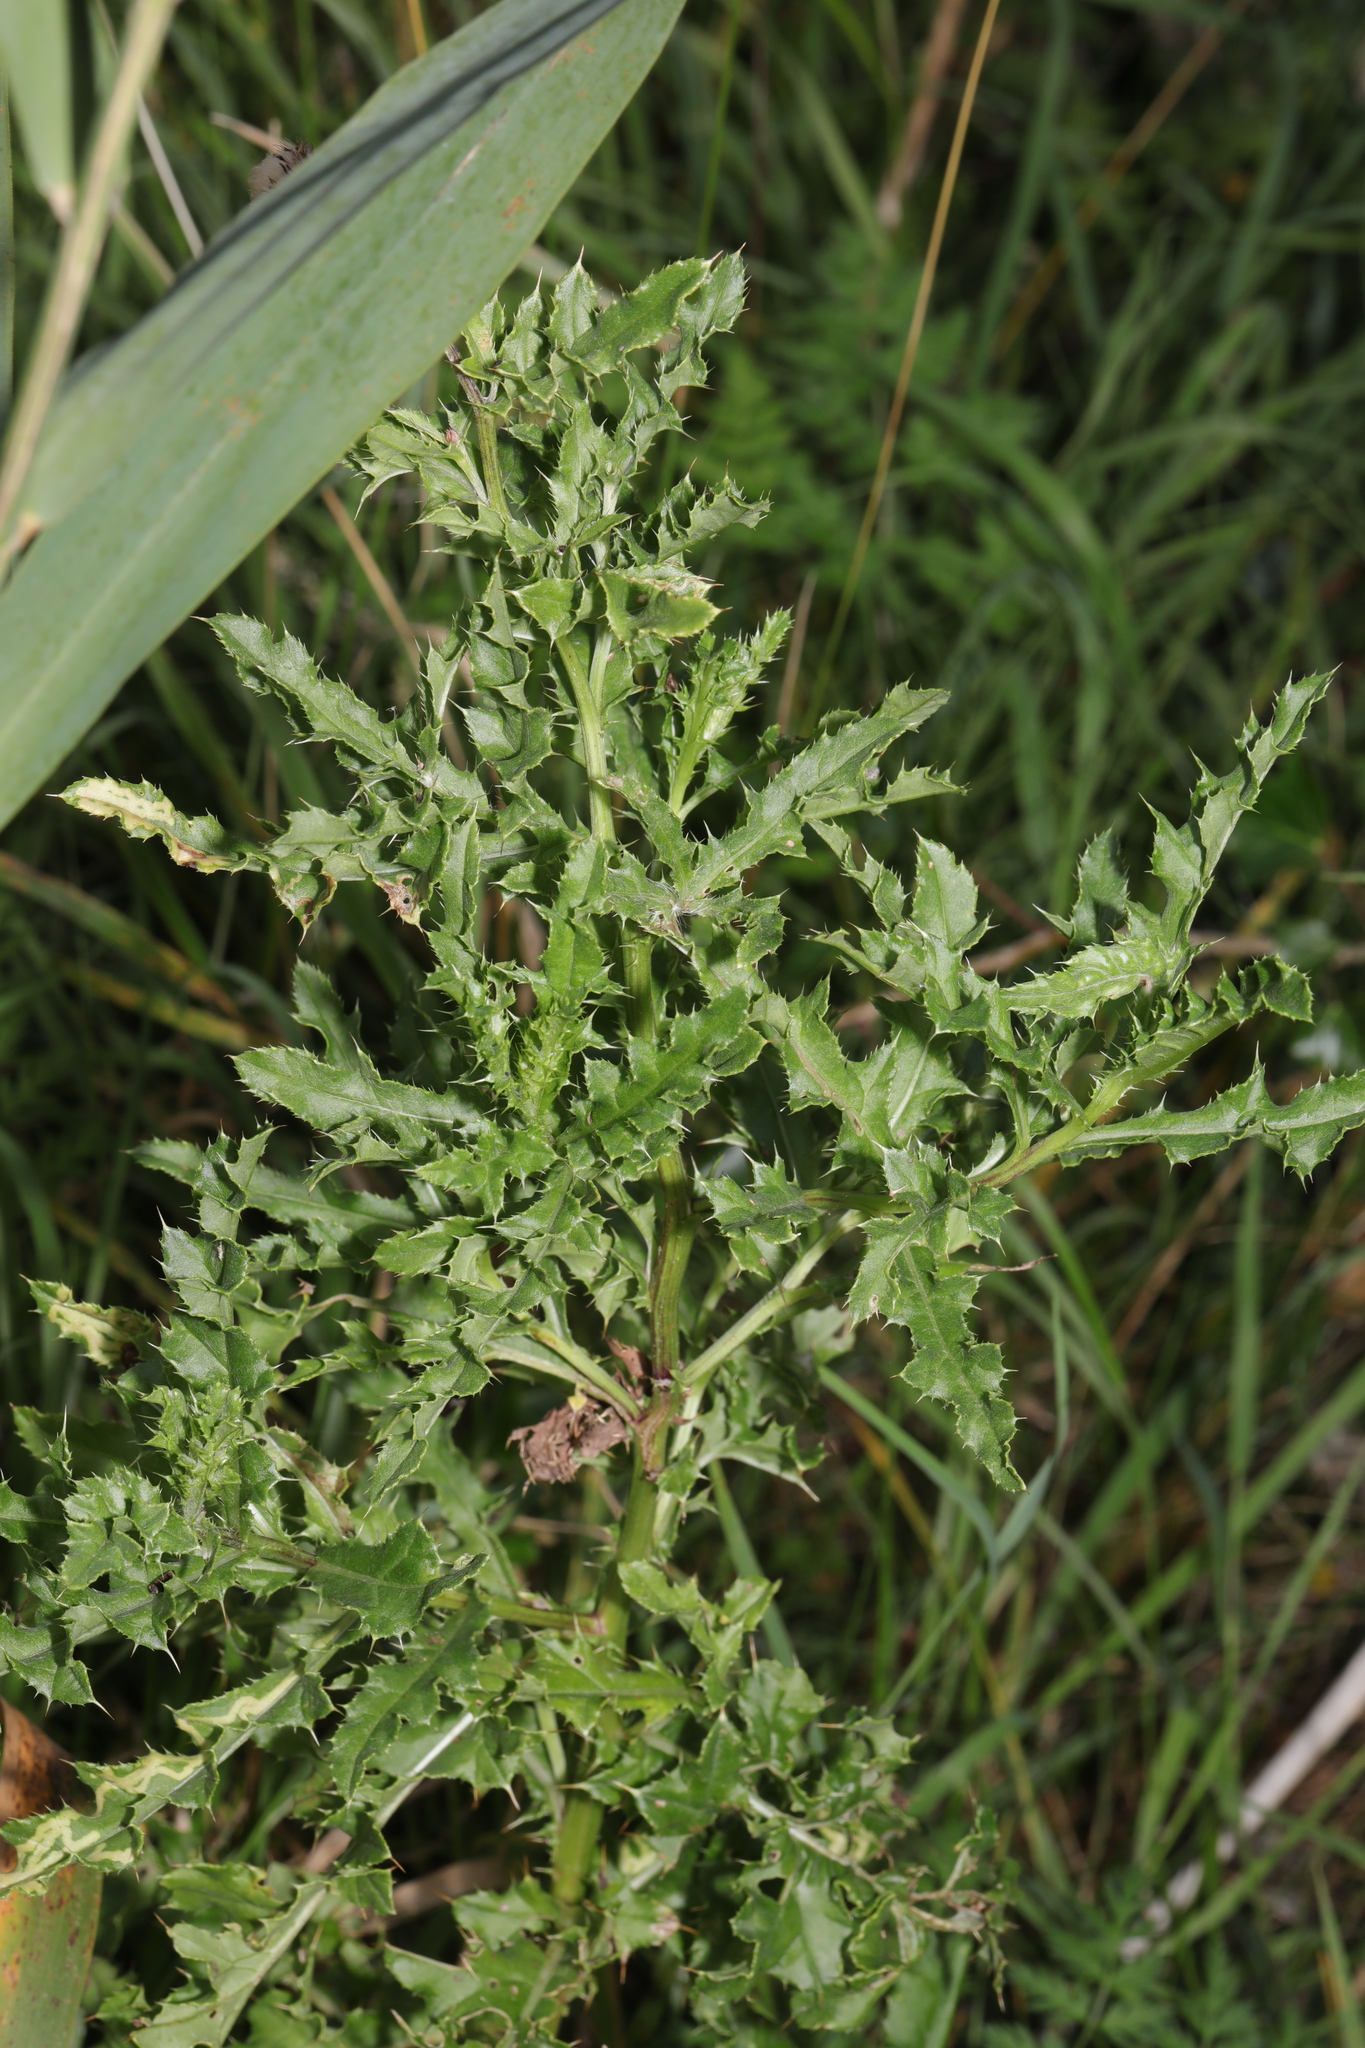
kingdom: Plantae
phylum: Tracheophyta
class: Magnoliopsida
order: Asterales
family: Asteraceae
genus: Cirsium
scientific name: Cirsium arvense
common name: Creeping thistle
